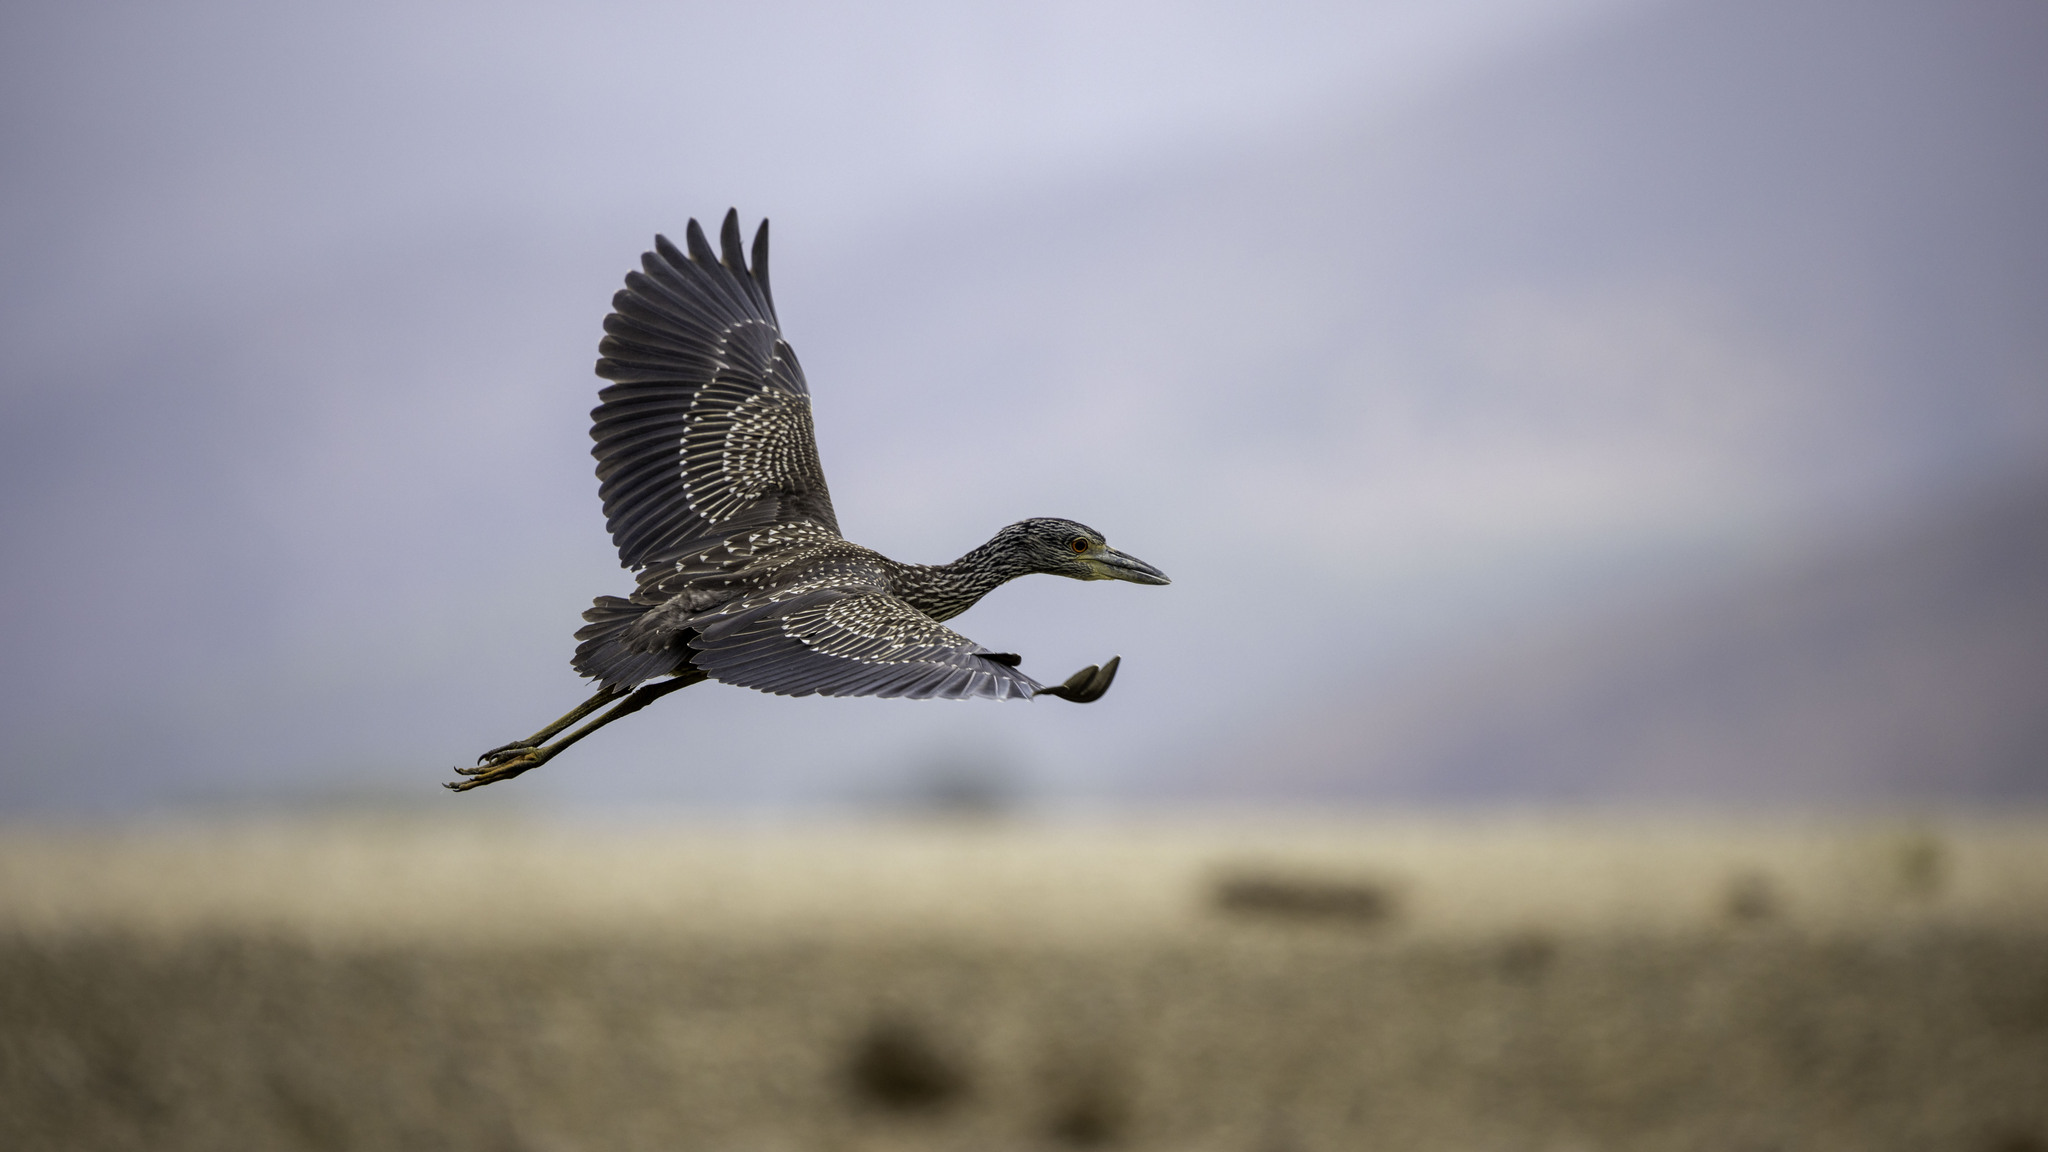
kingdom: Animalia
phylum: Chordata
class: Aves
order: Pelecaniformes
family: Ardeidae
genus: Nyctanassa
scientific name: Nyctanassa violacea
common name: Yellow-crowned night heron
